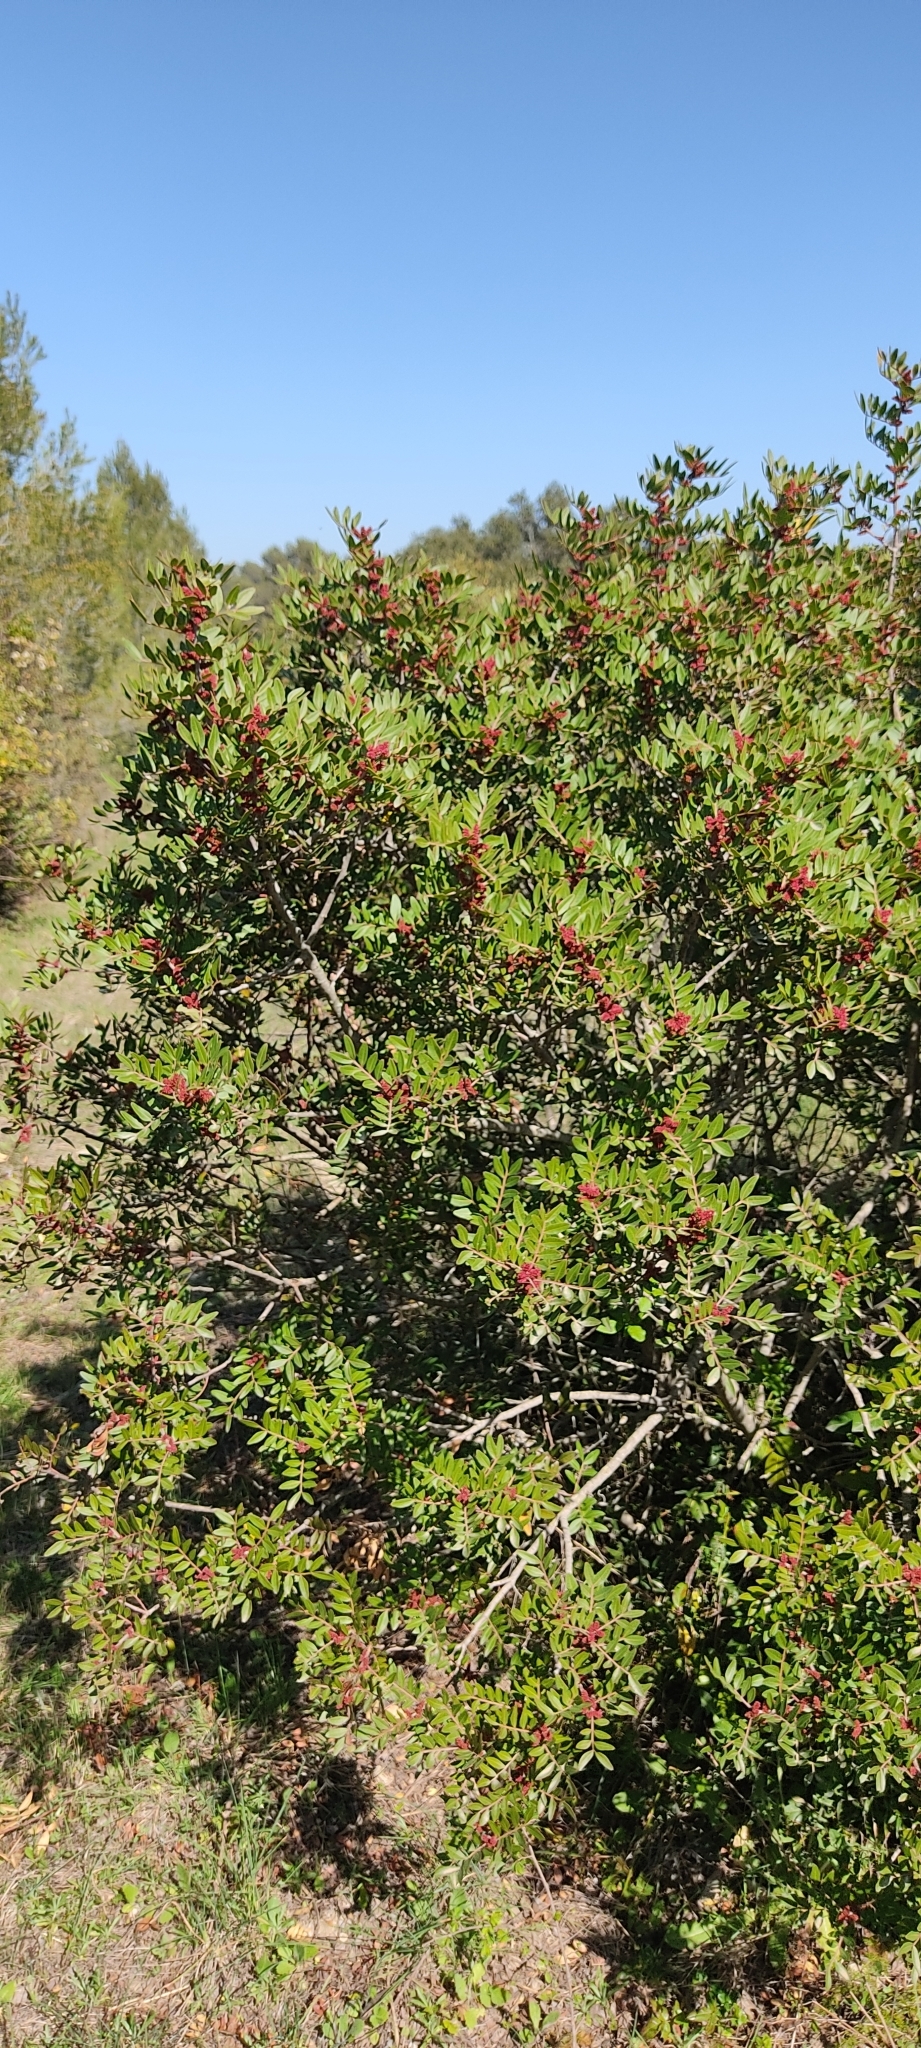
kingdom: Plantae
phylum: Tracheophyta
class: Magnoliopsida
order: Sapindales
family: Anacardiaceae
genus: Pistacia
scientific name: Pistacia lentiscus
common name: Lentisk
